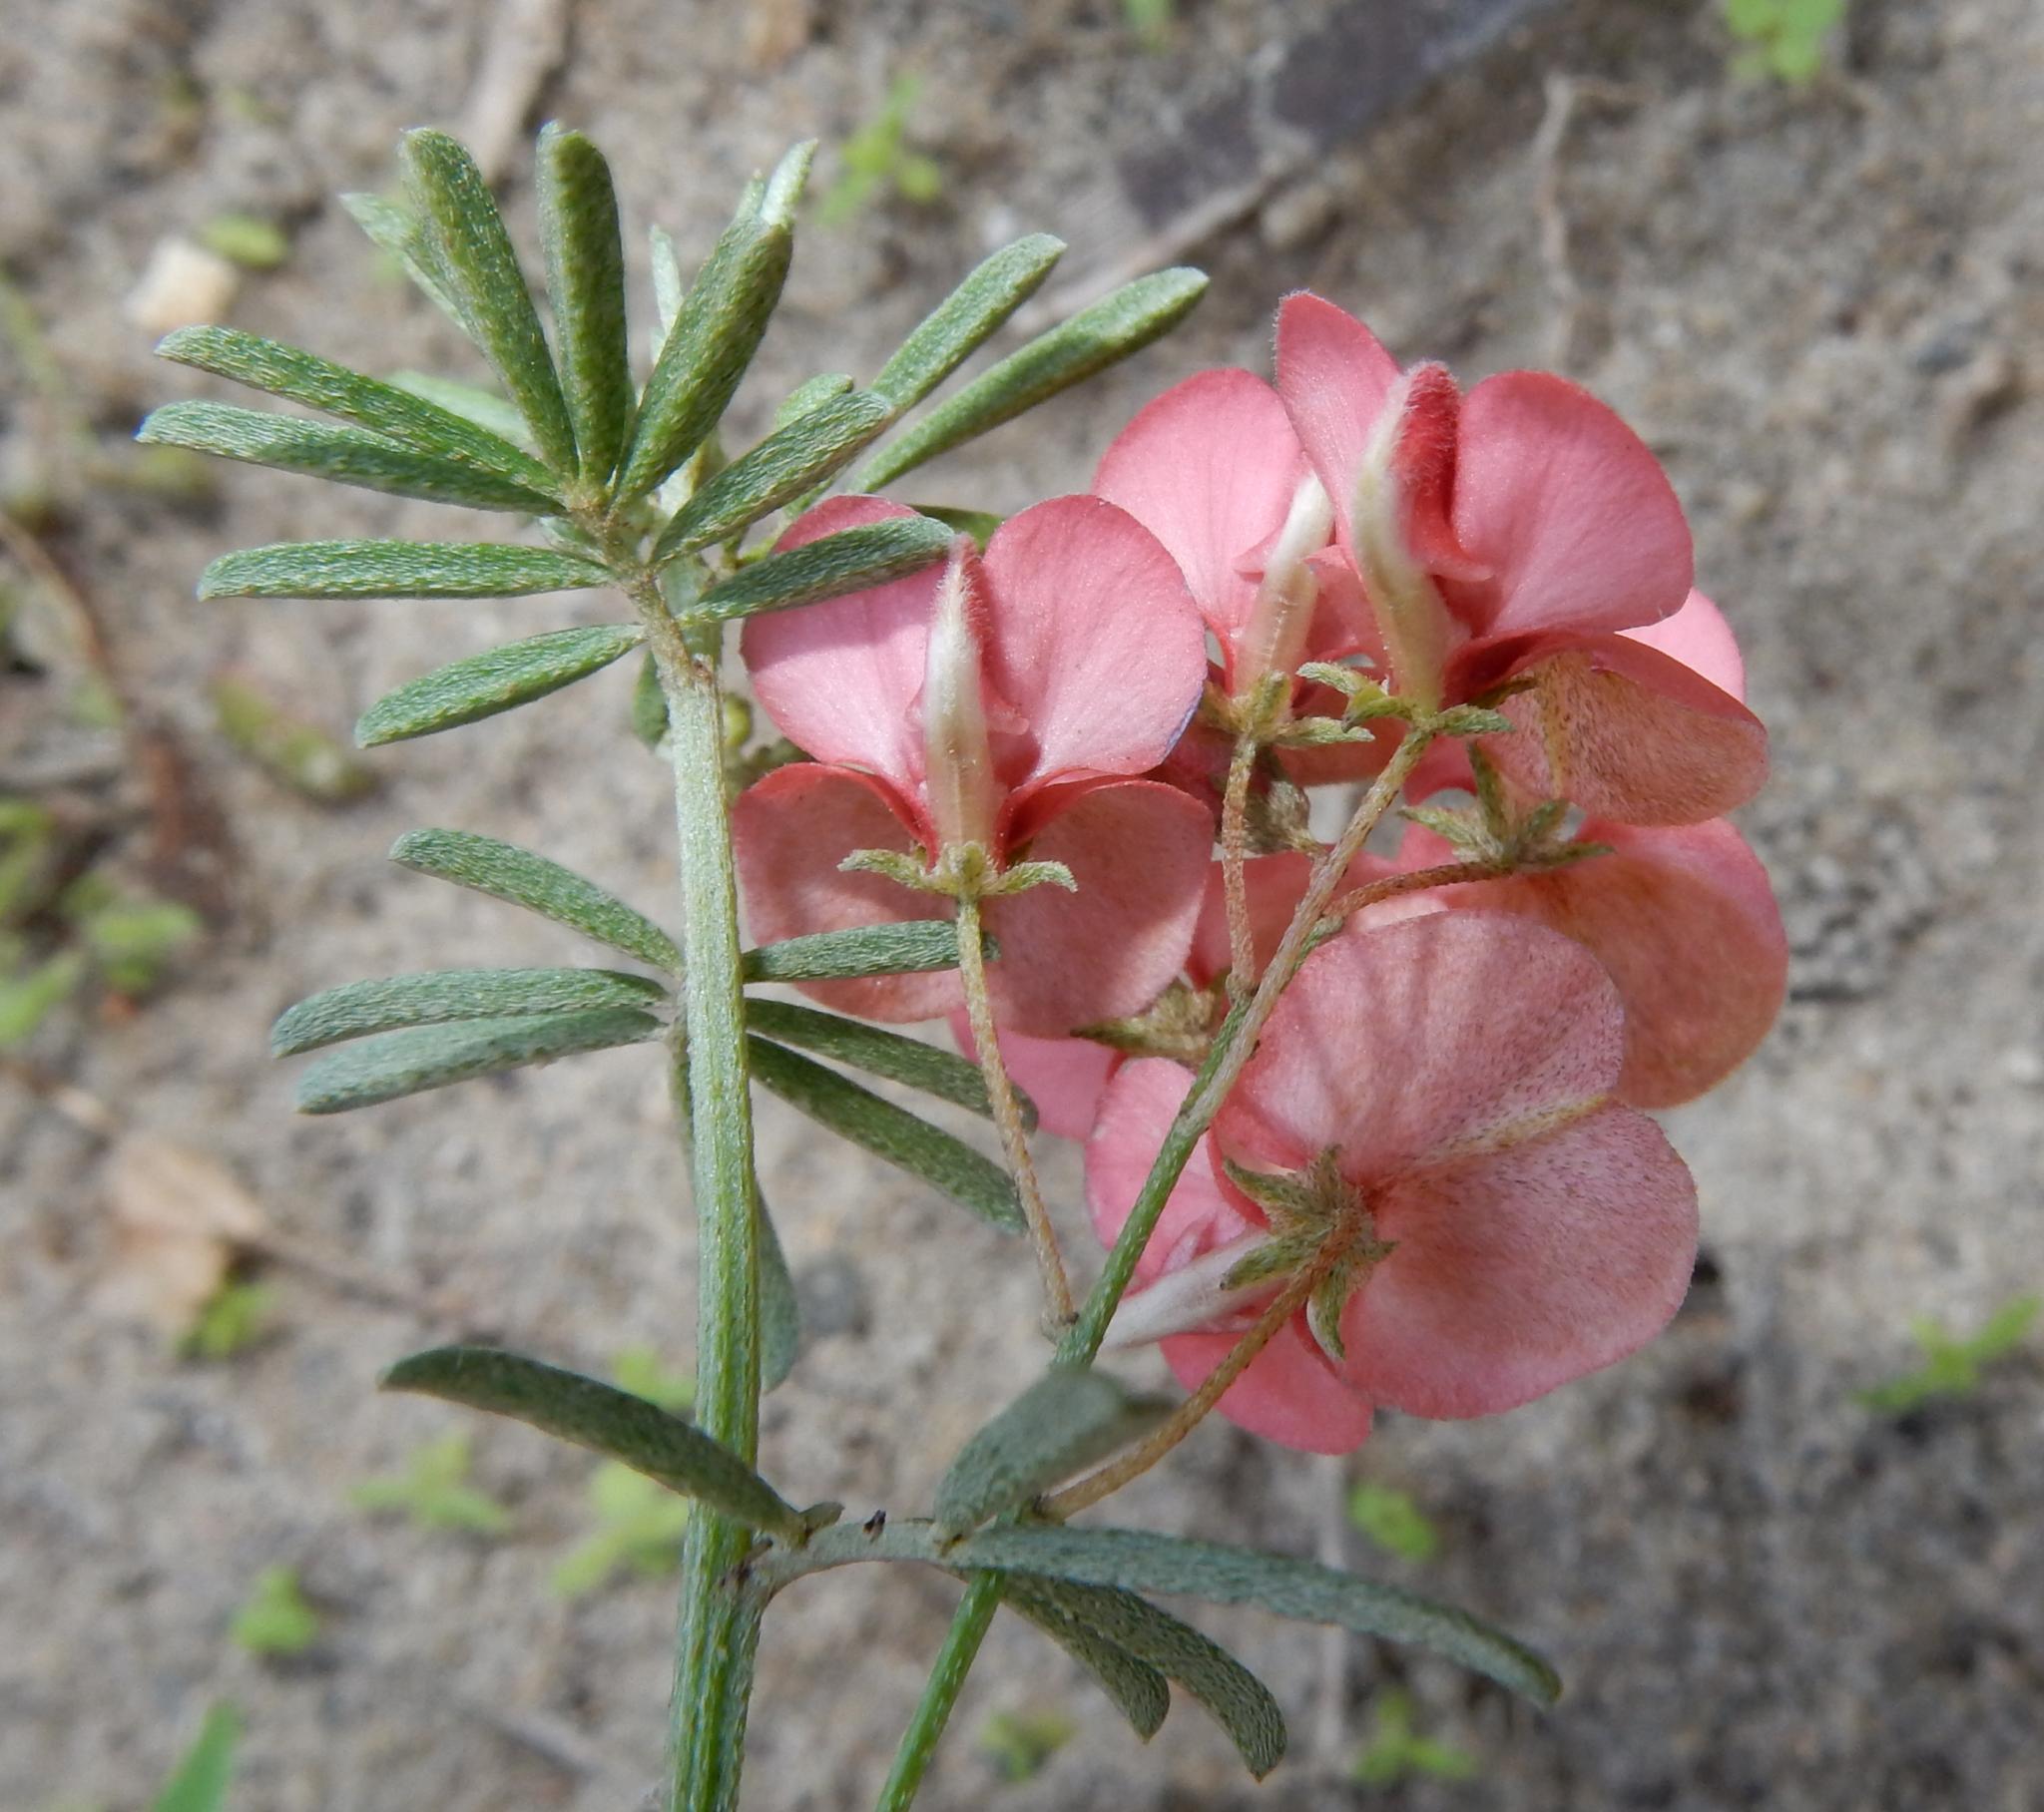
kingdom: Plantae
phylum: Tracheophyta
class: Magnoliopsida
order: Fabales
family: Fabaceae
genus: Indigofera
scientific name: Indigofera verrucosa
